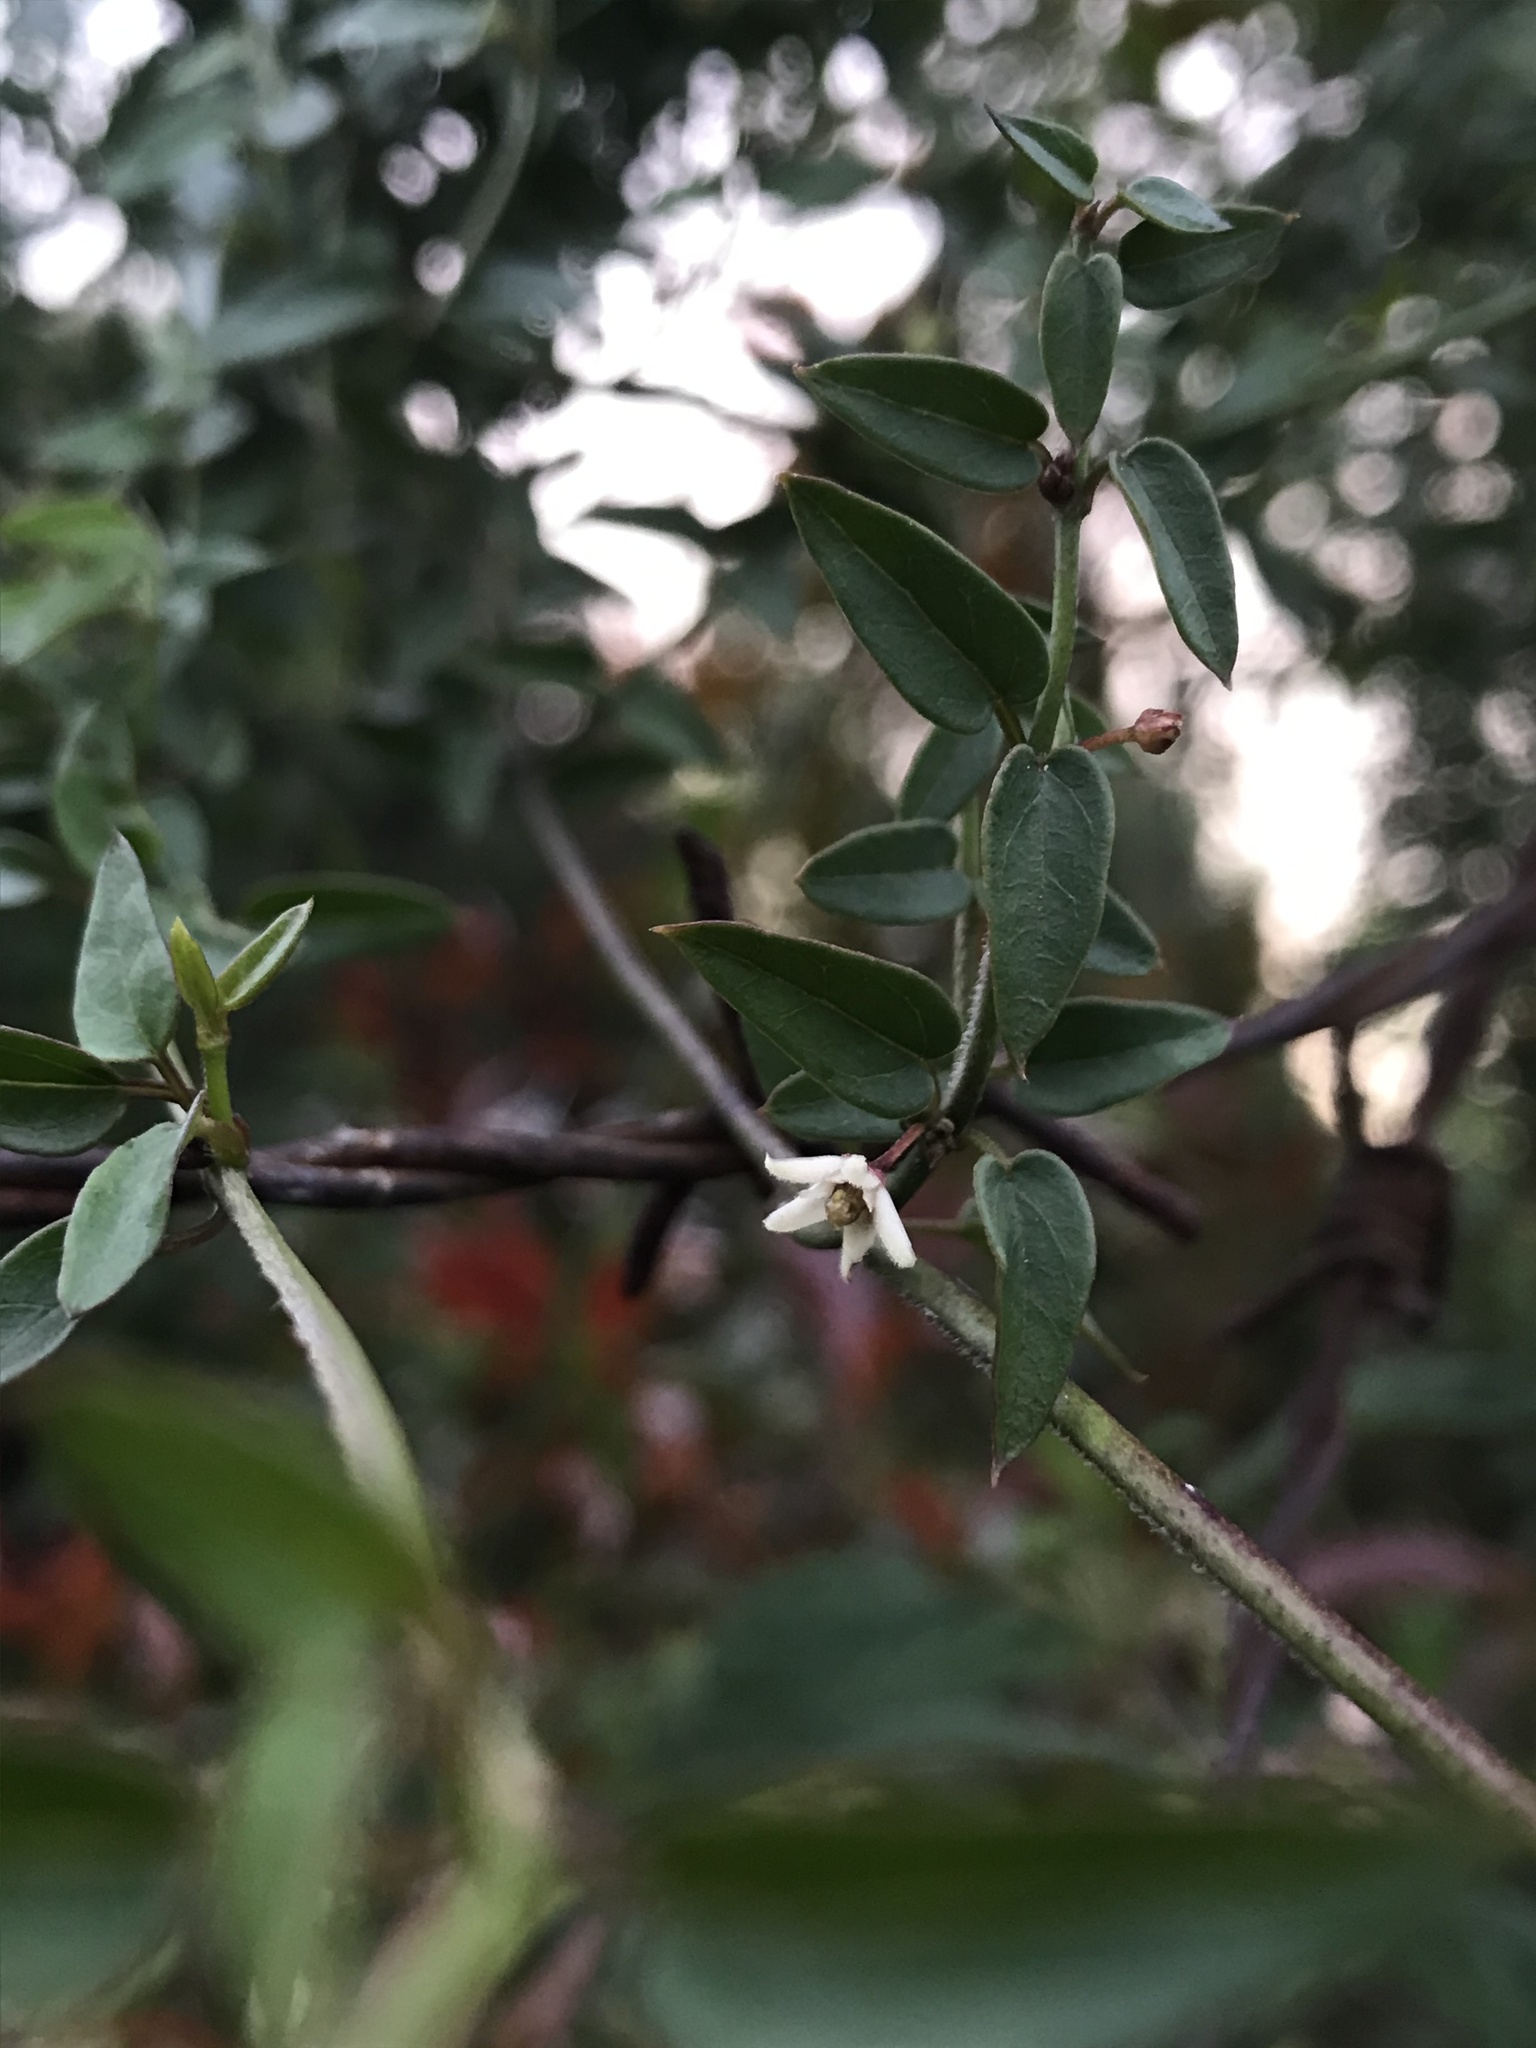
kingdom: Plantae
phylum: Tracheophyta
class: Magnoliopsida
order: Gentianales
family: Apocynaceae
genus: Scyphostelma
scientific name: Scyphostelma tenellum
